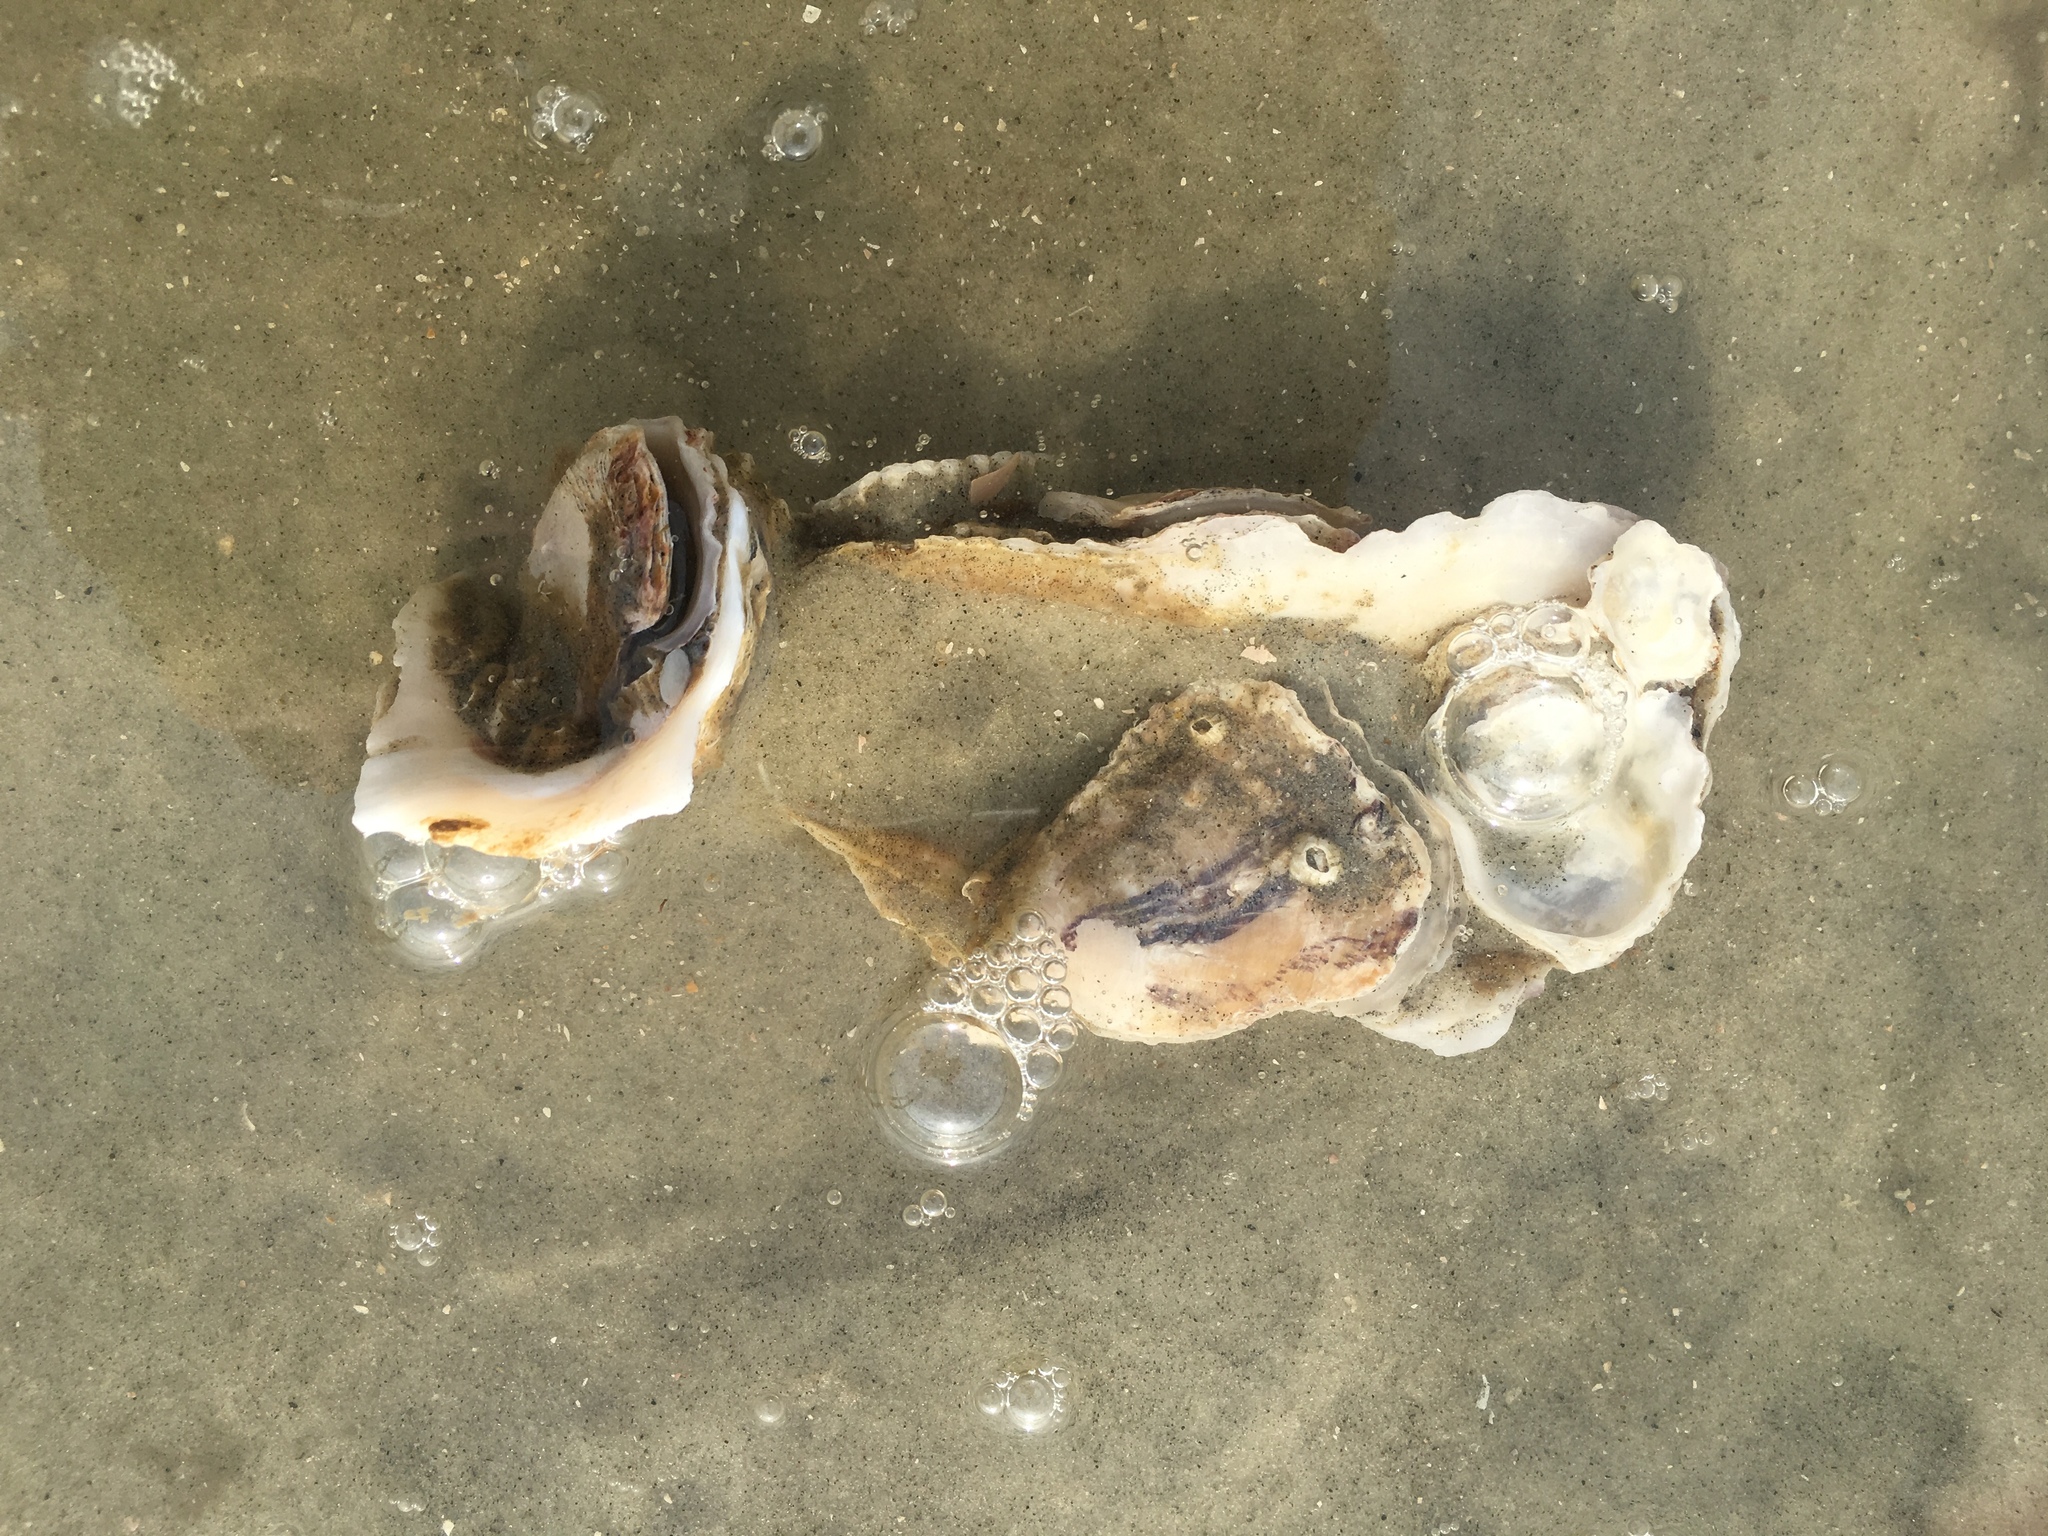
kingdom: Animalia
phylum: Mollusca
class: Bivalvia
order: Ostreida
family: Ostreidae
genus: Crassostrea
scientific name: Crassostrea virginica
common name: American oyster
